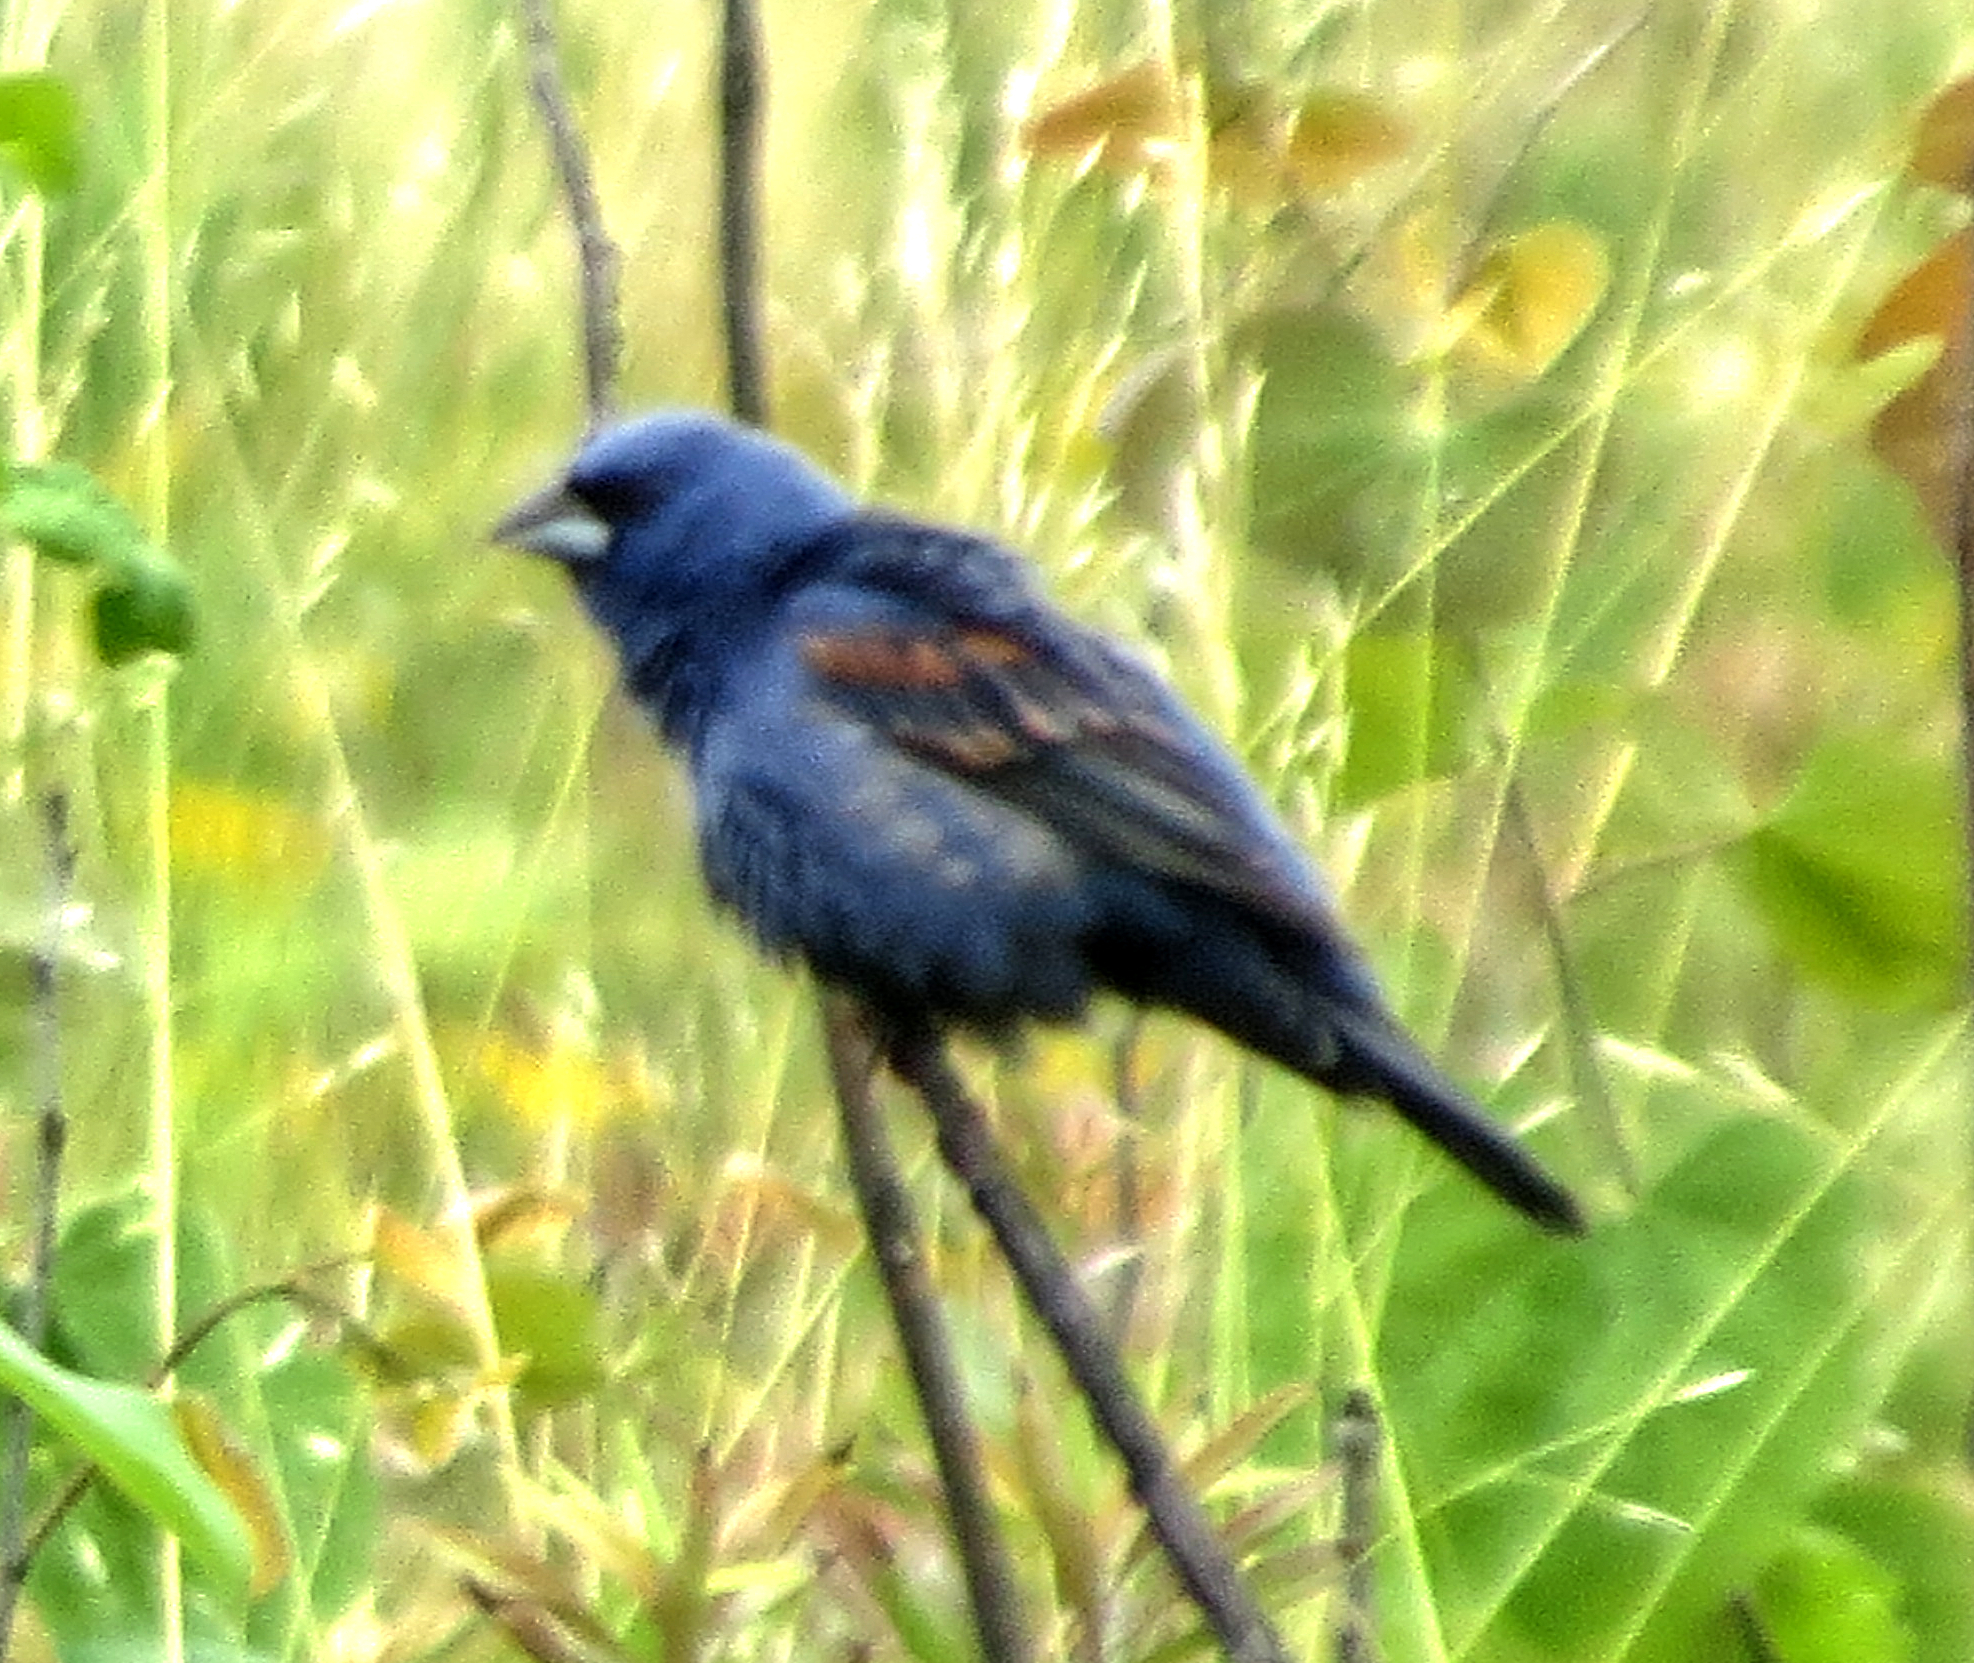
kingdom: Animalia
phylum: Chordata
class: Aves
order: Passeriformes
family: Cardinalidae
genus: Passerina
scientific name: Passerina caerulea
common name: Blue grosbeak
